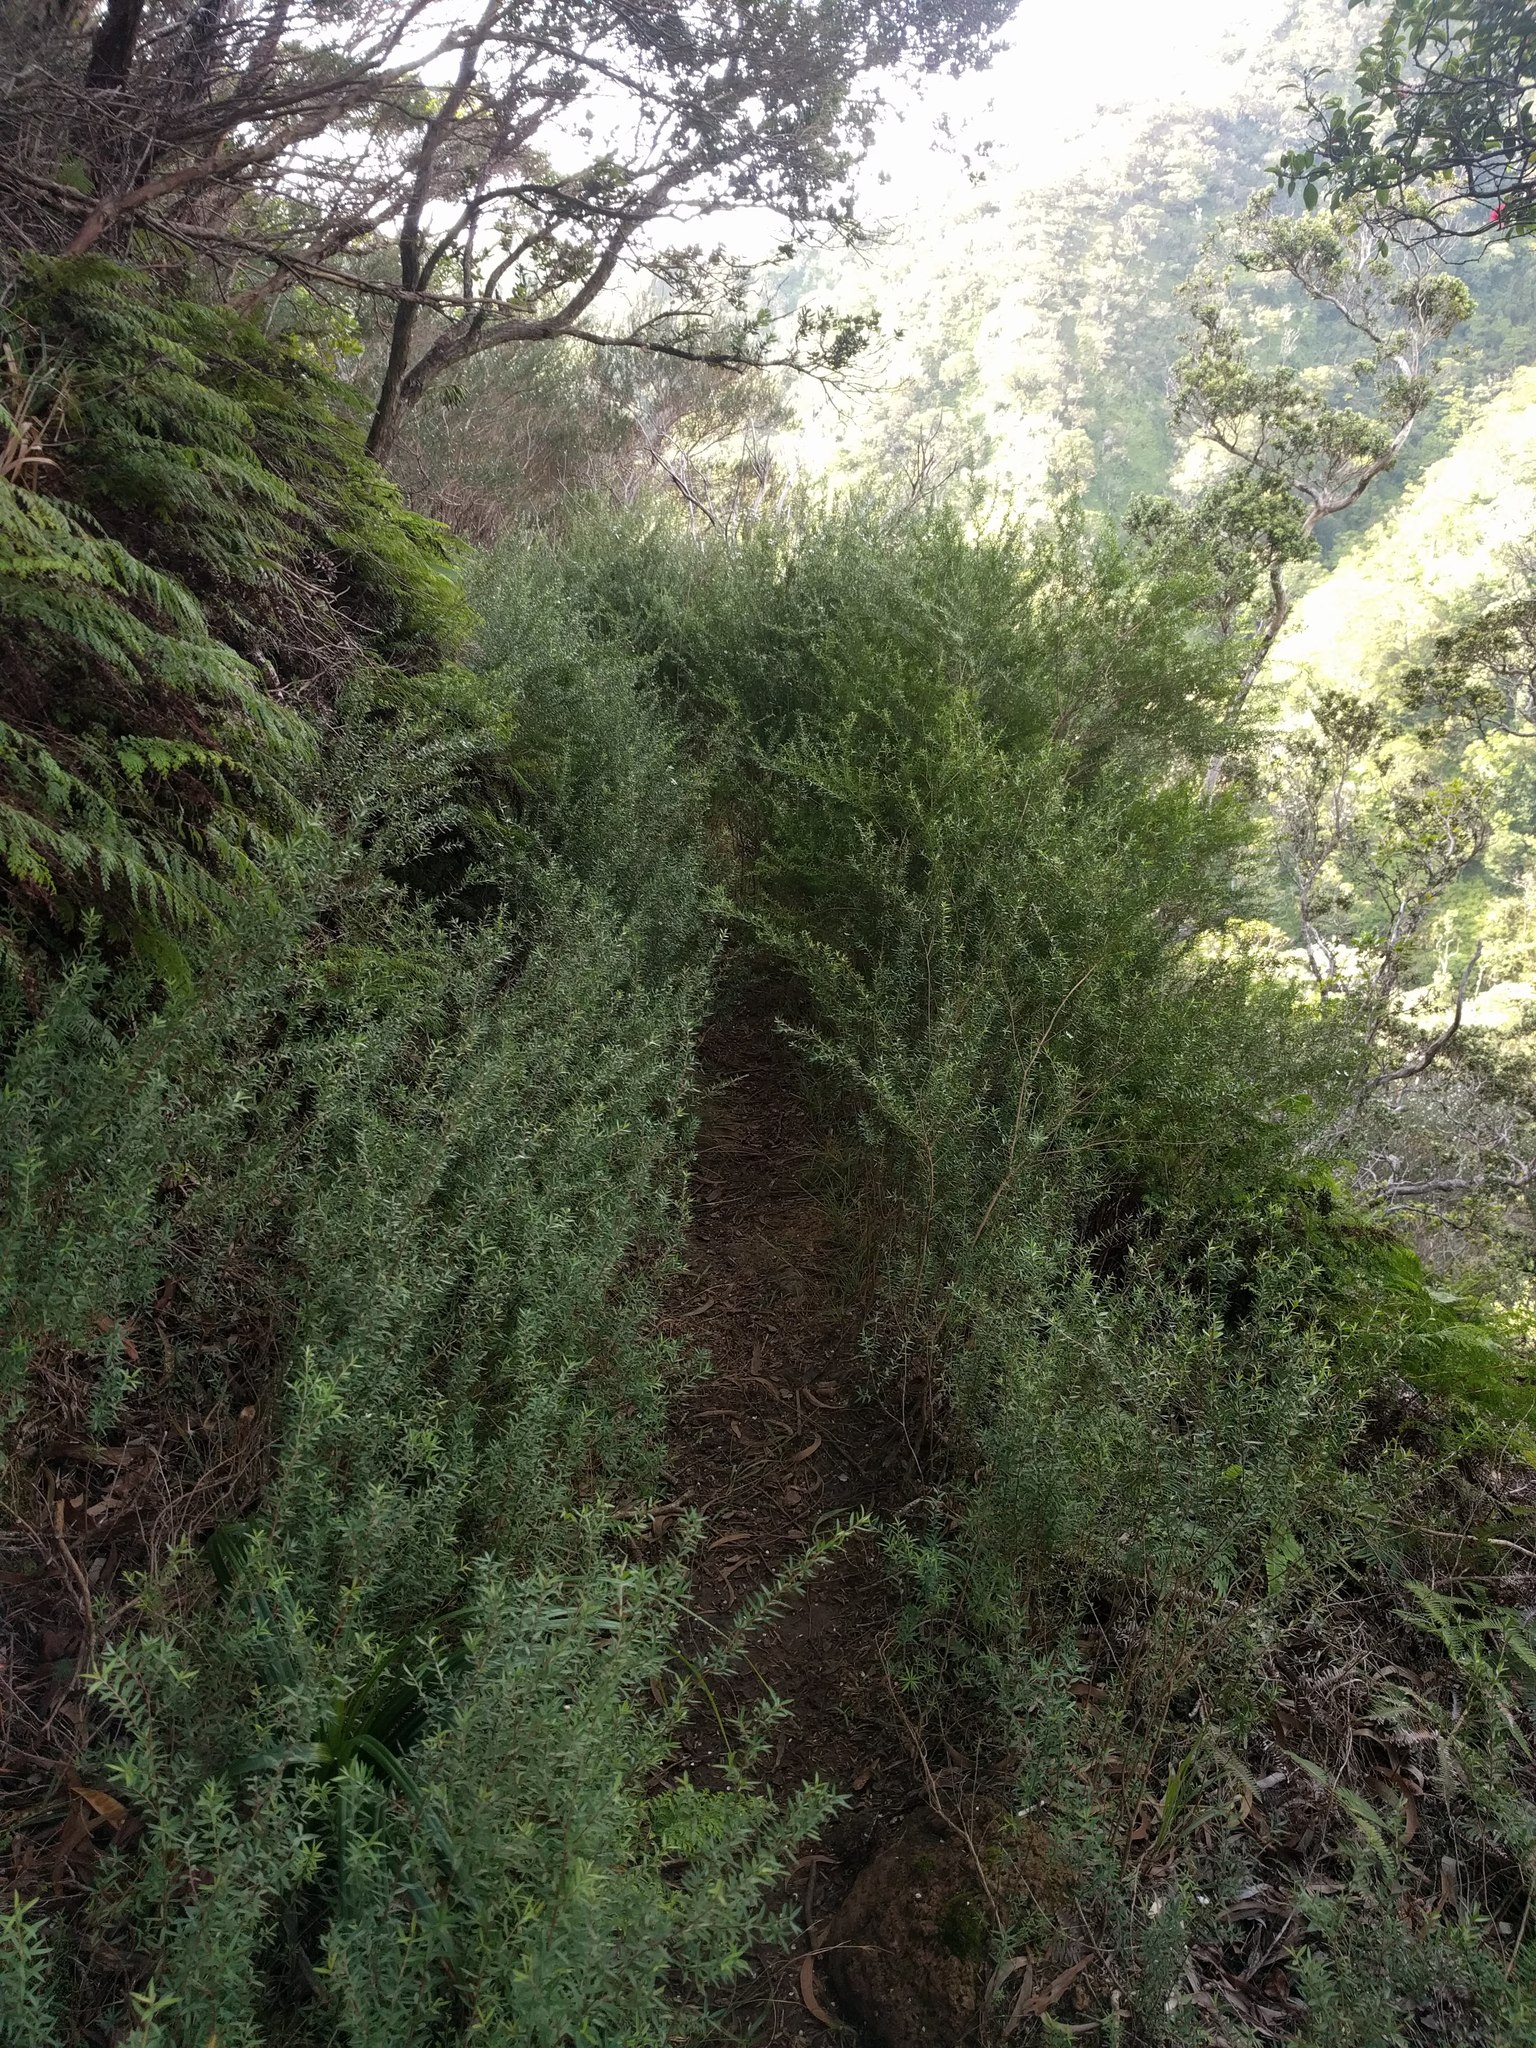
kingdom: Plantae
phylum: Tracheophyta
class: Magnoliopsida
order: Myrtales
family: Myrtaceae
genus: Leptospermum
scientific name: Leptospermum scoparium
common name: Broom tea-tree
